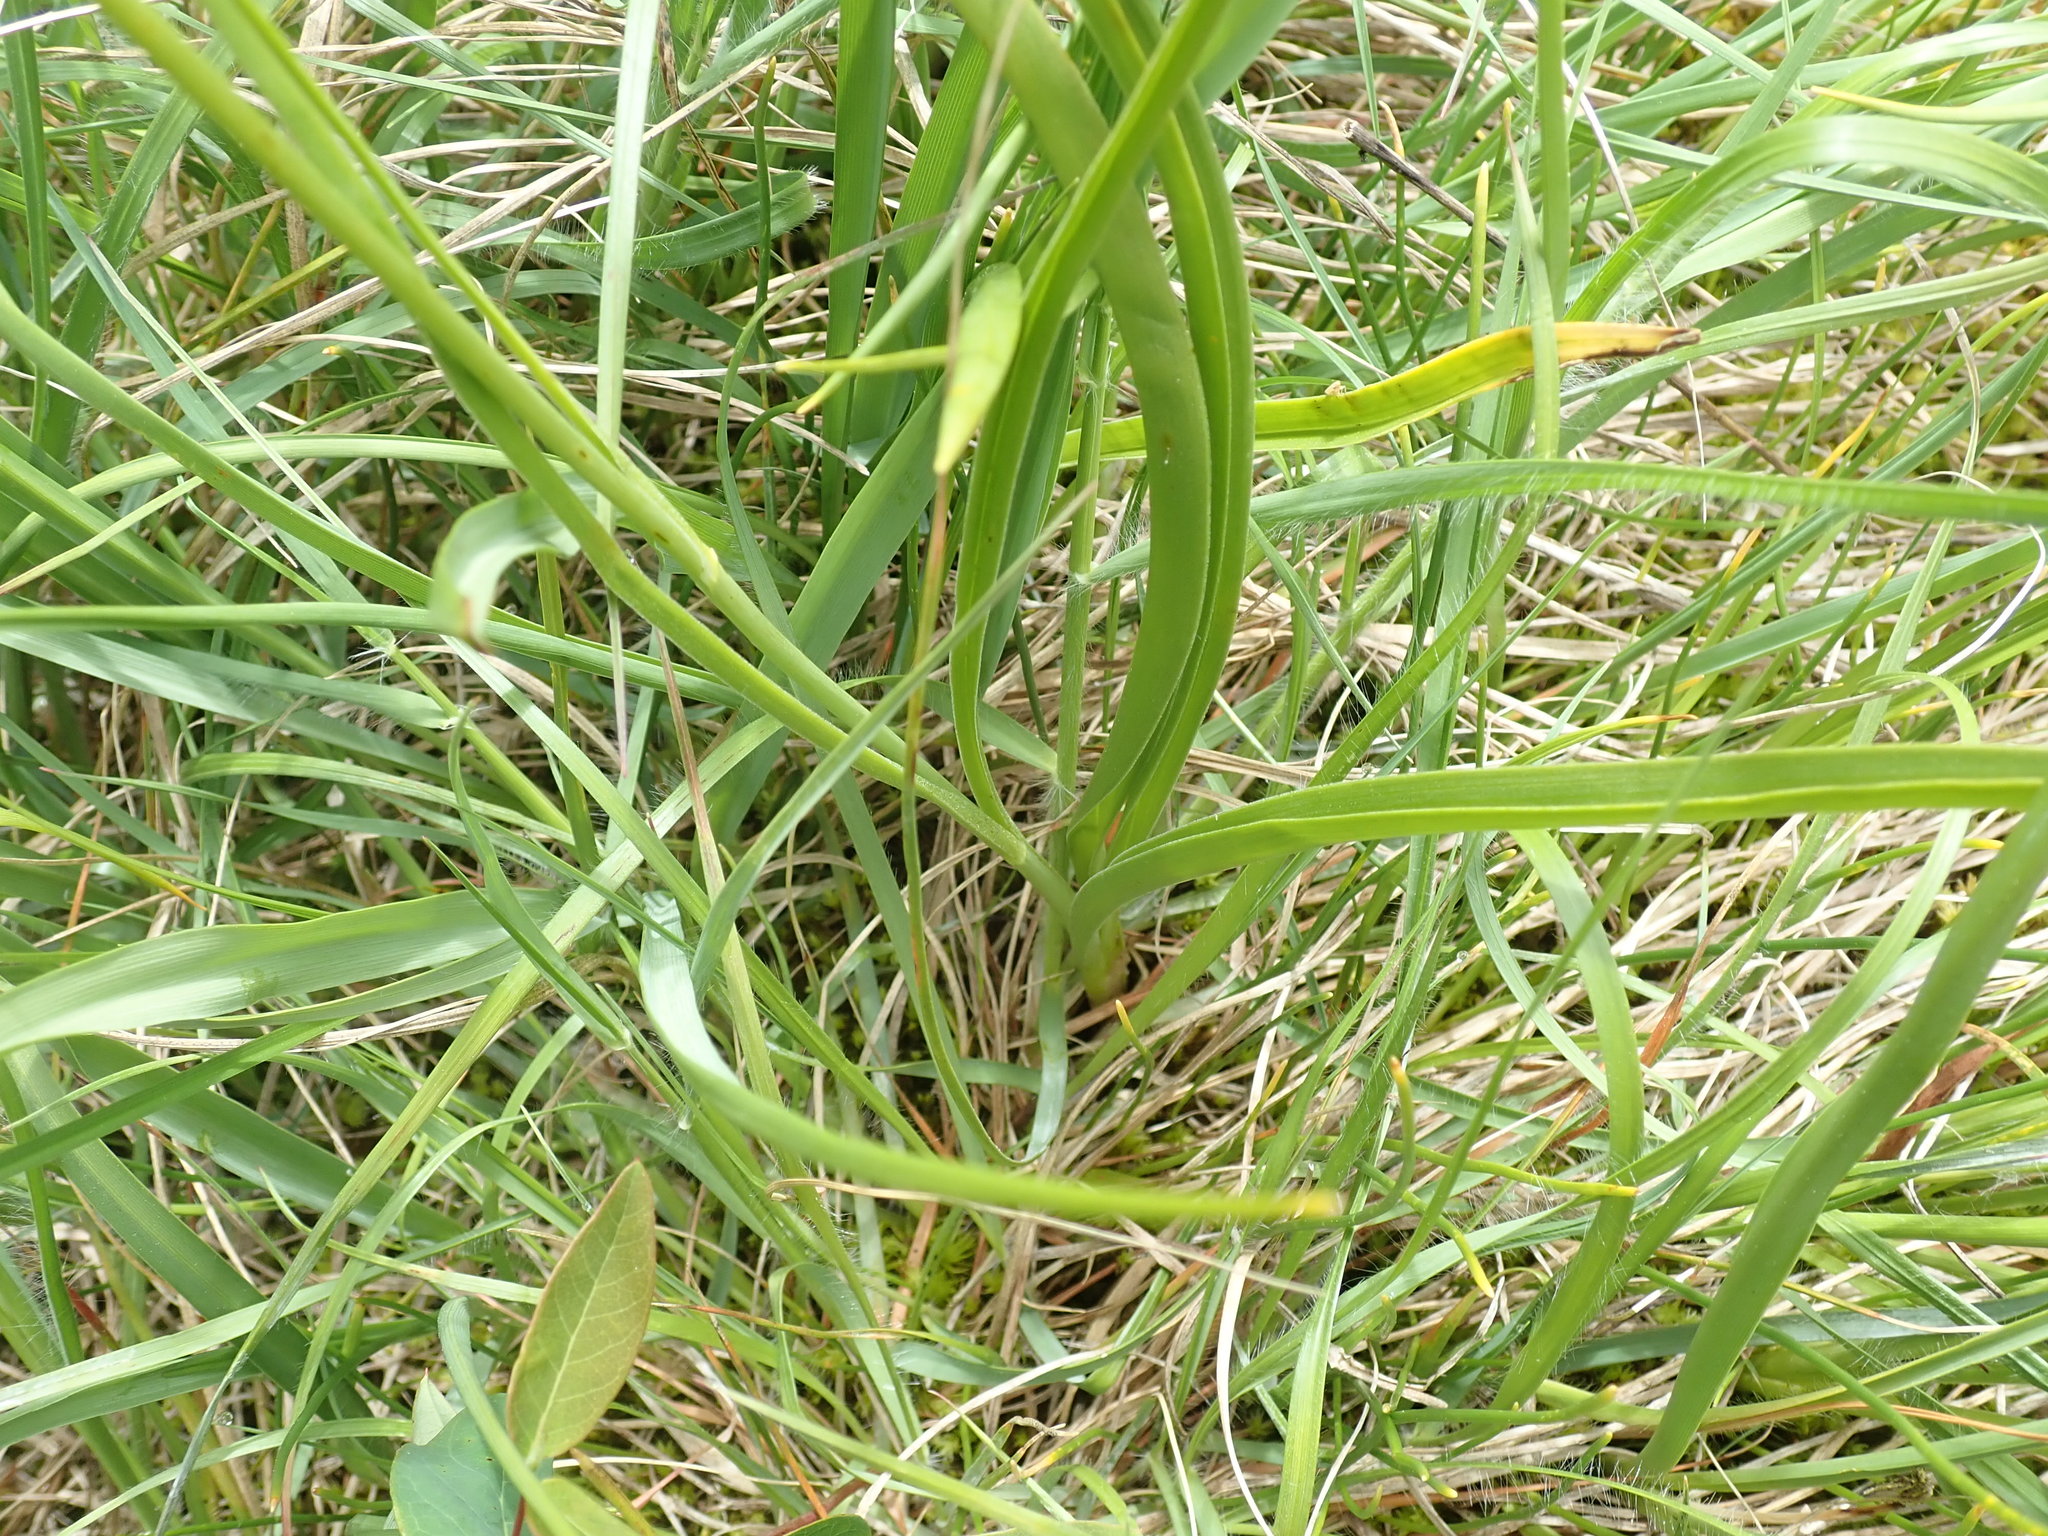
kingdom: Plantae
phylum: Tracheophyta
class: Liliopsida
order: Liliales
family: Melanthiaceae
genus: Toxicoscordion
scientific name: Toxicoscordion venenosum
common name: Meadow death camas
